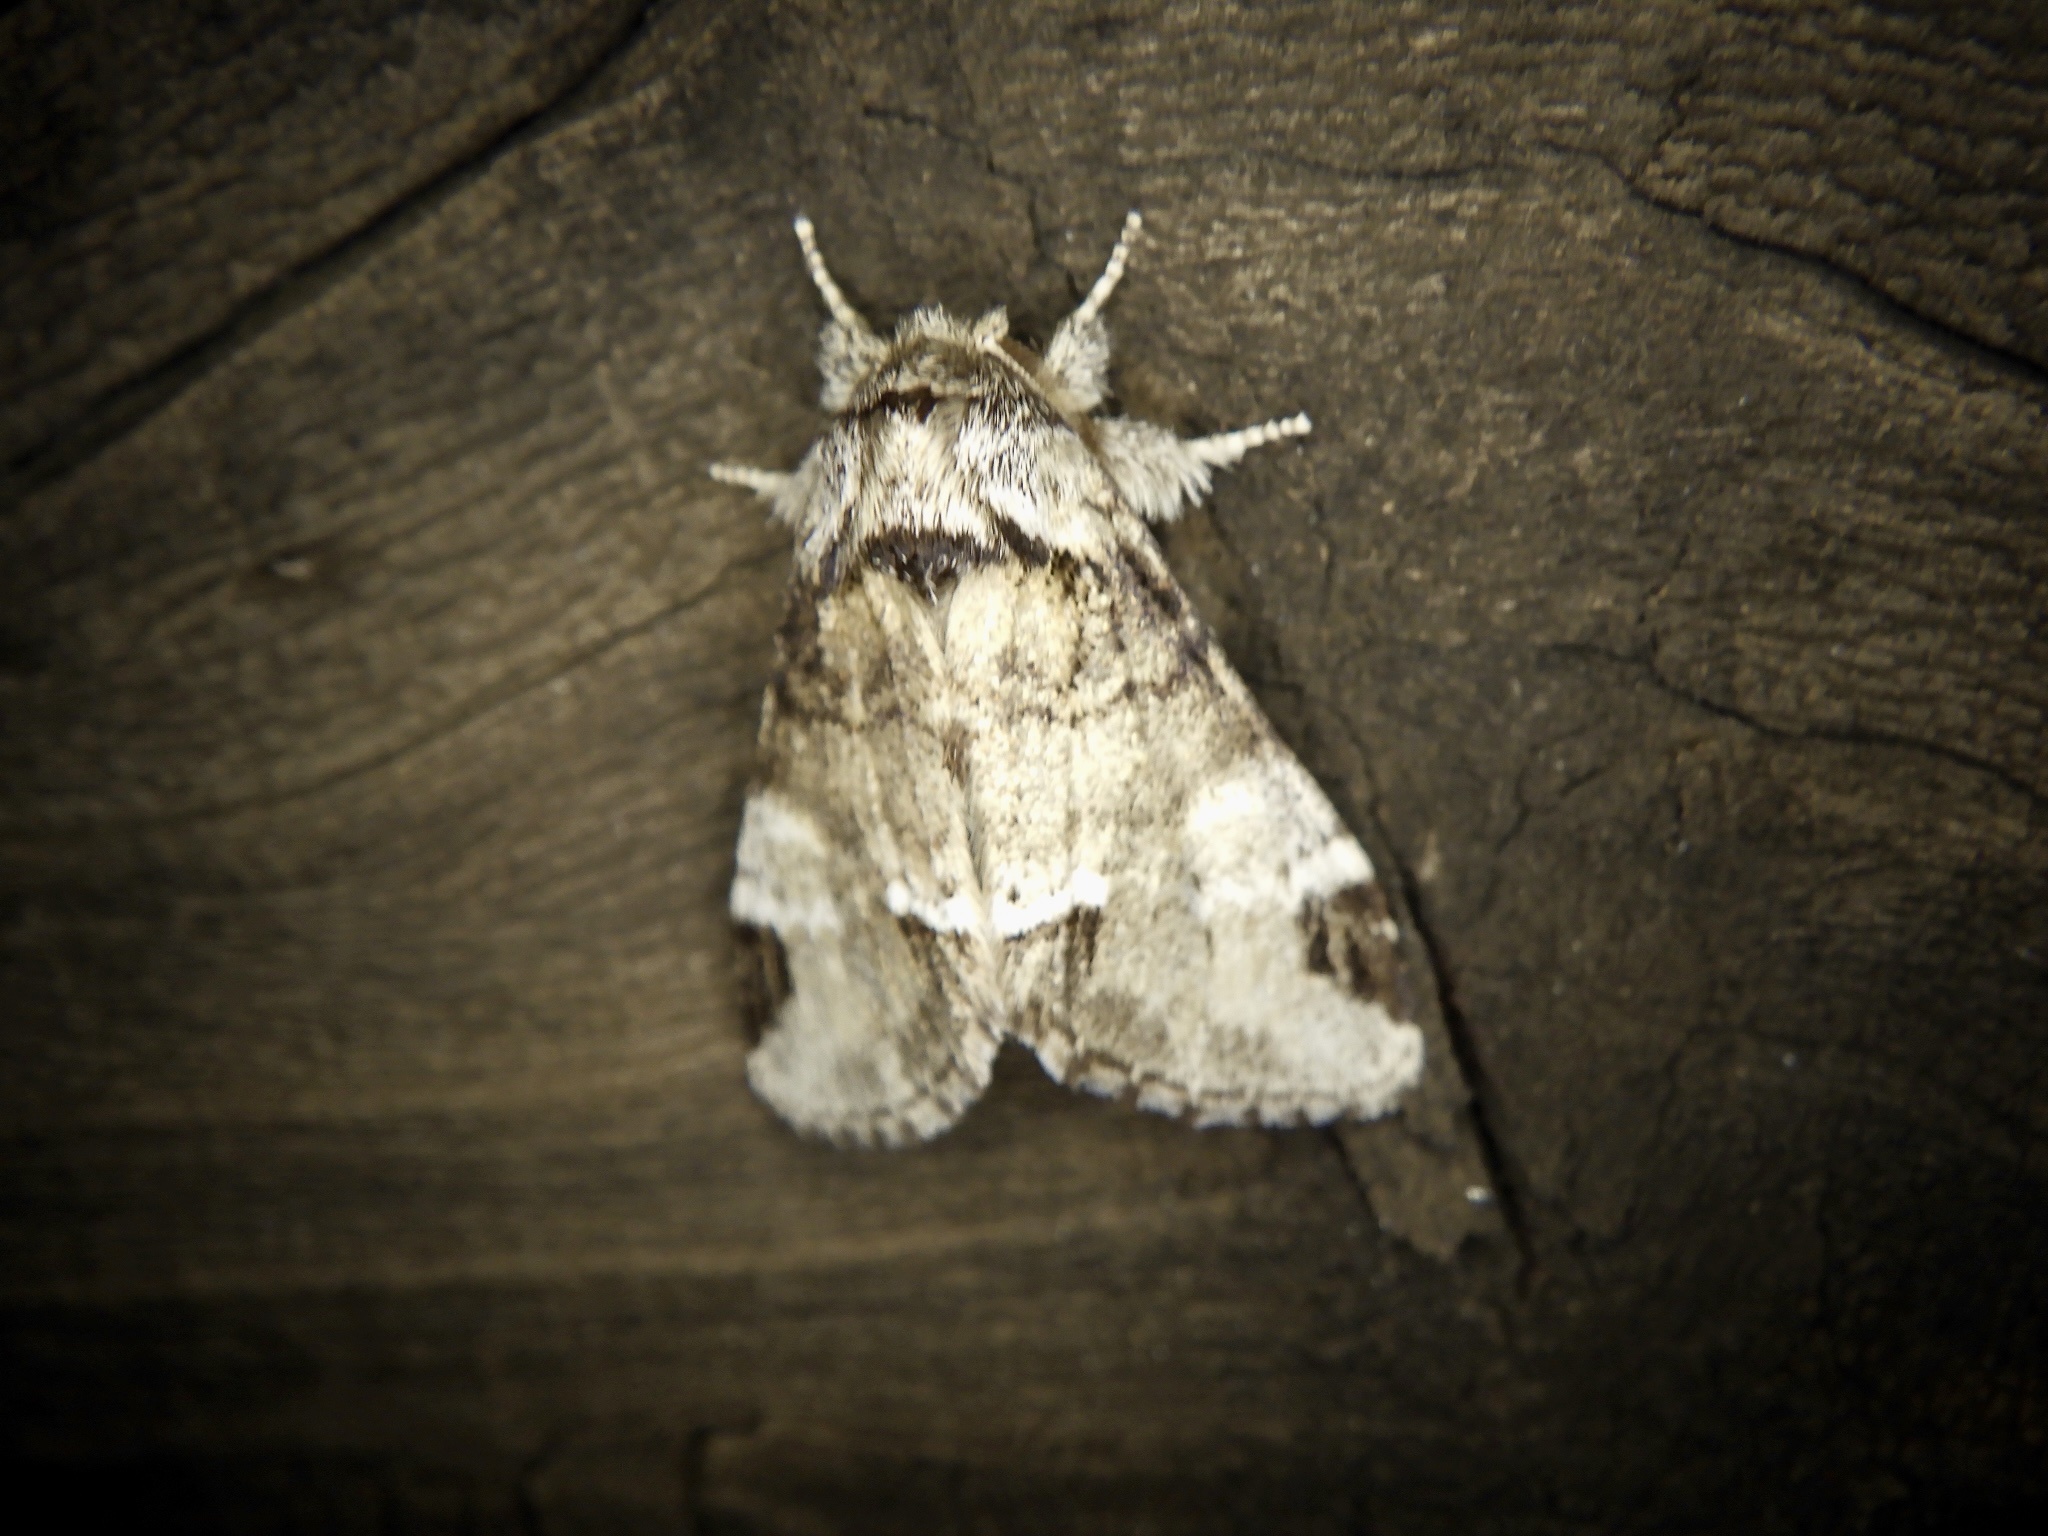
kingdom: Animalia
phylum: Arthropoda
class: Insecta
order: Lepidoptera
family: Notodontidae
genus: Drymonia
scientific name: Drymonia japonica
